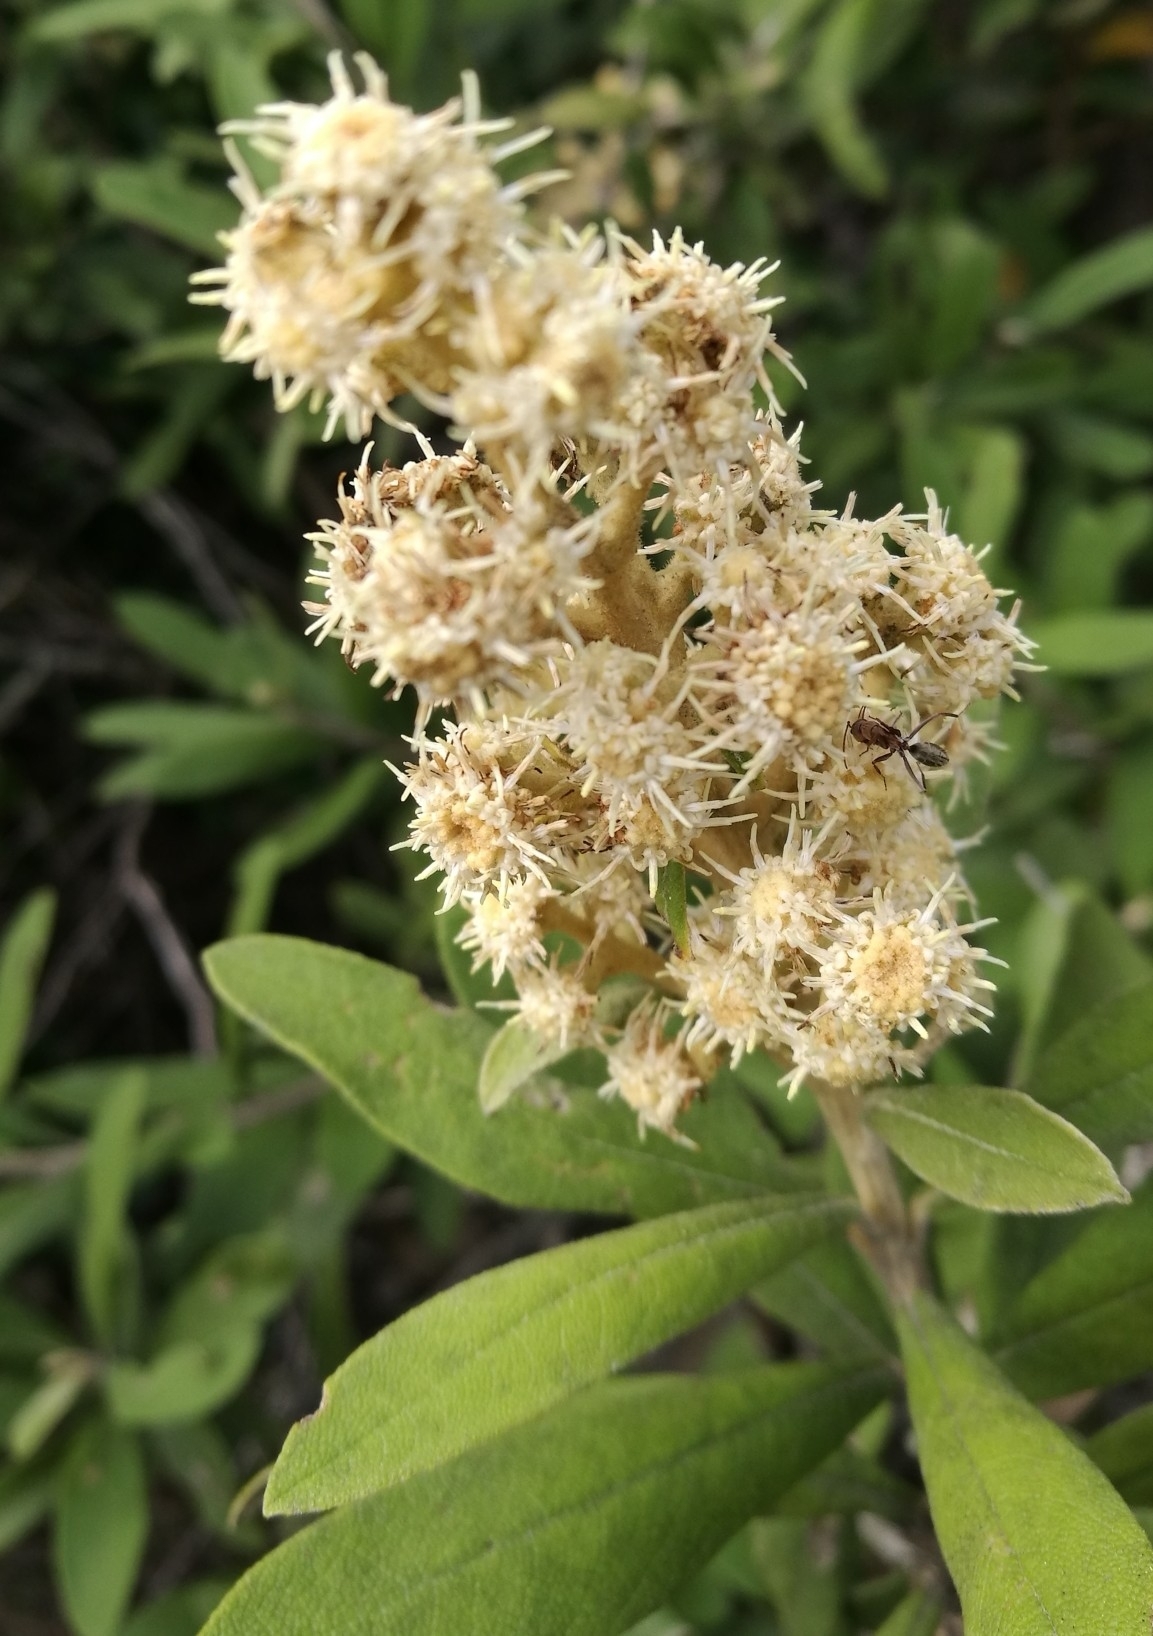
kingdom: Plantae
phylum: Tracheophyta
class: Magnoliopsida
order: Asterales
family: Asteraceae
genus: Tarchonanthus
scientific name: Tarchonanthus littoralis
